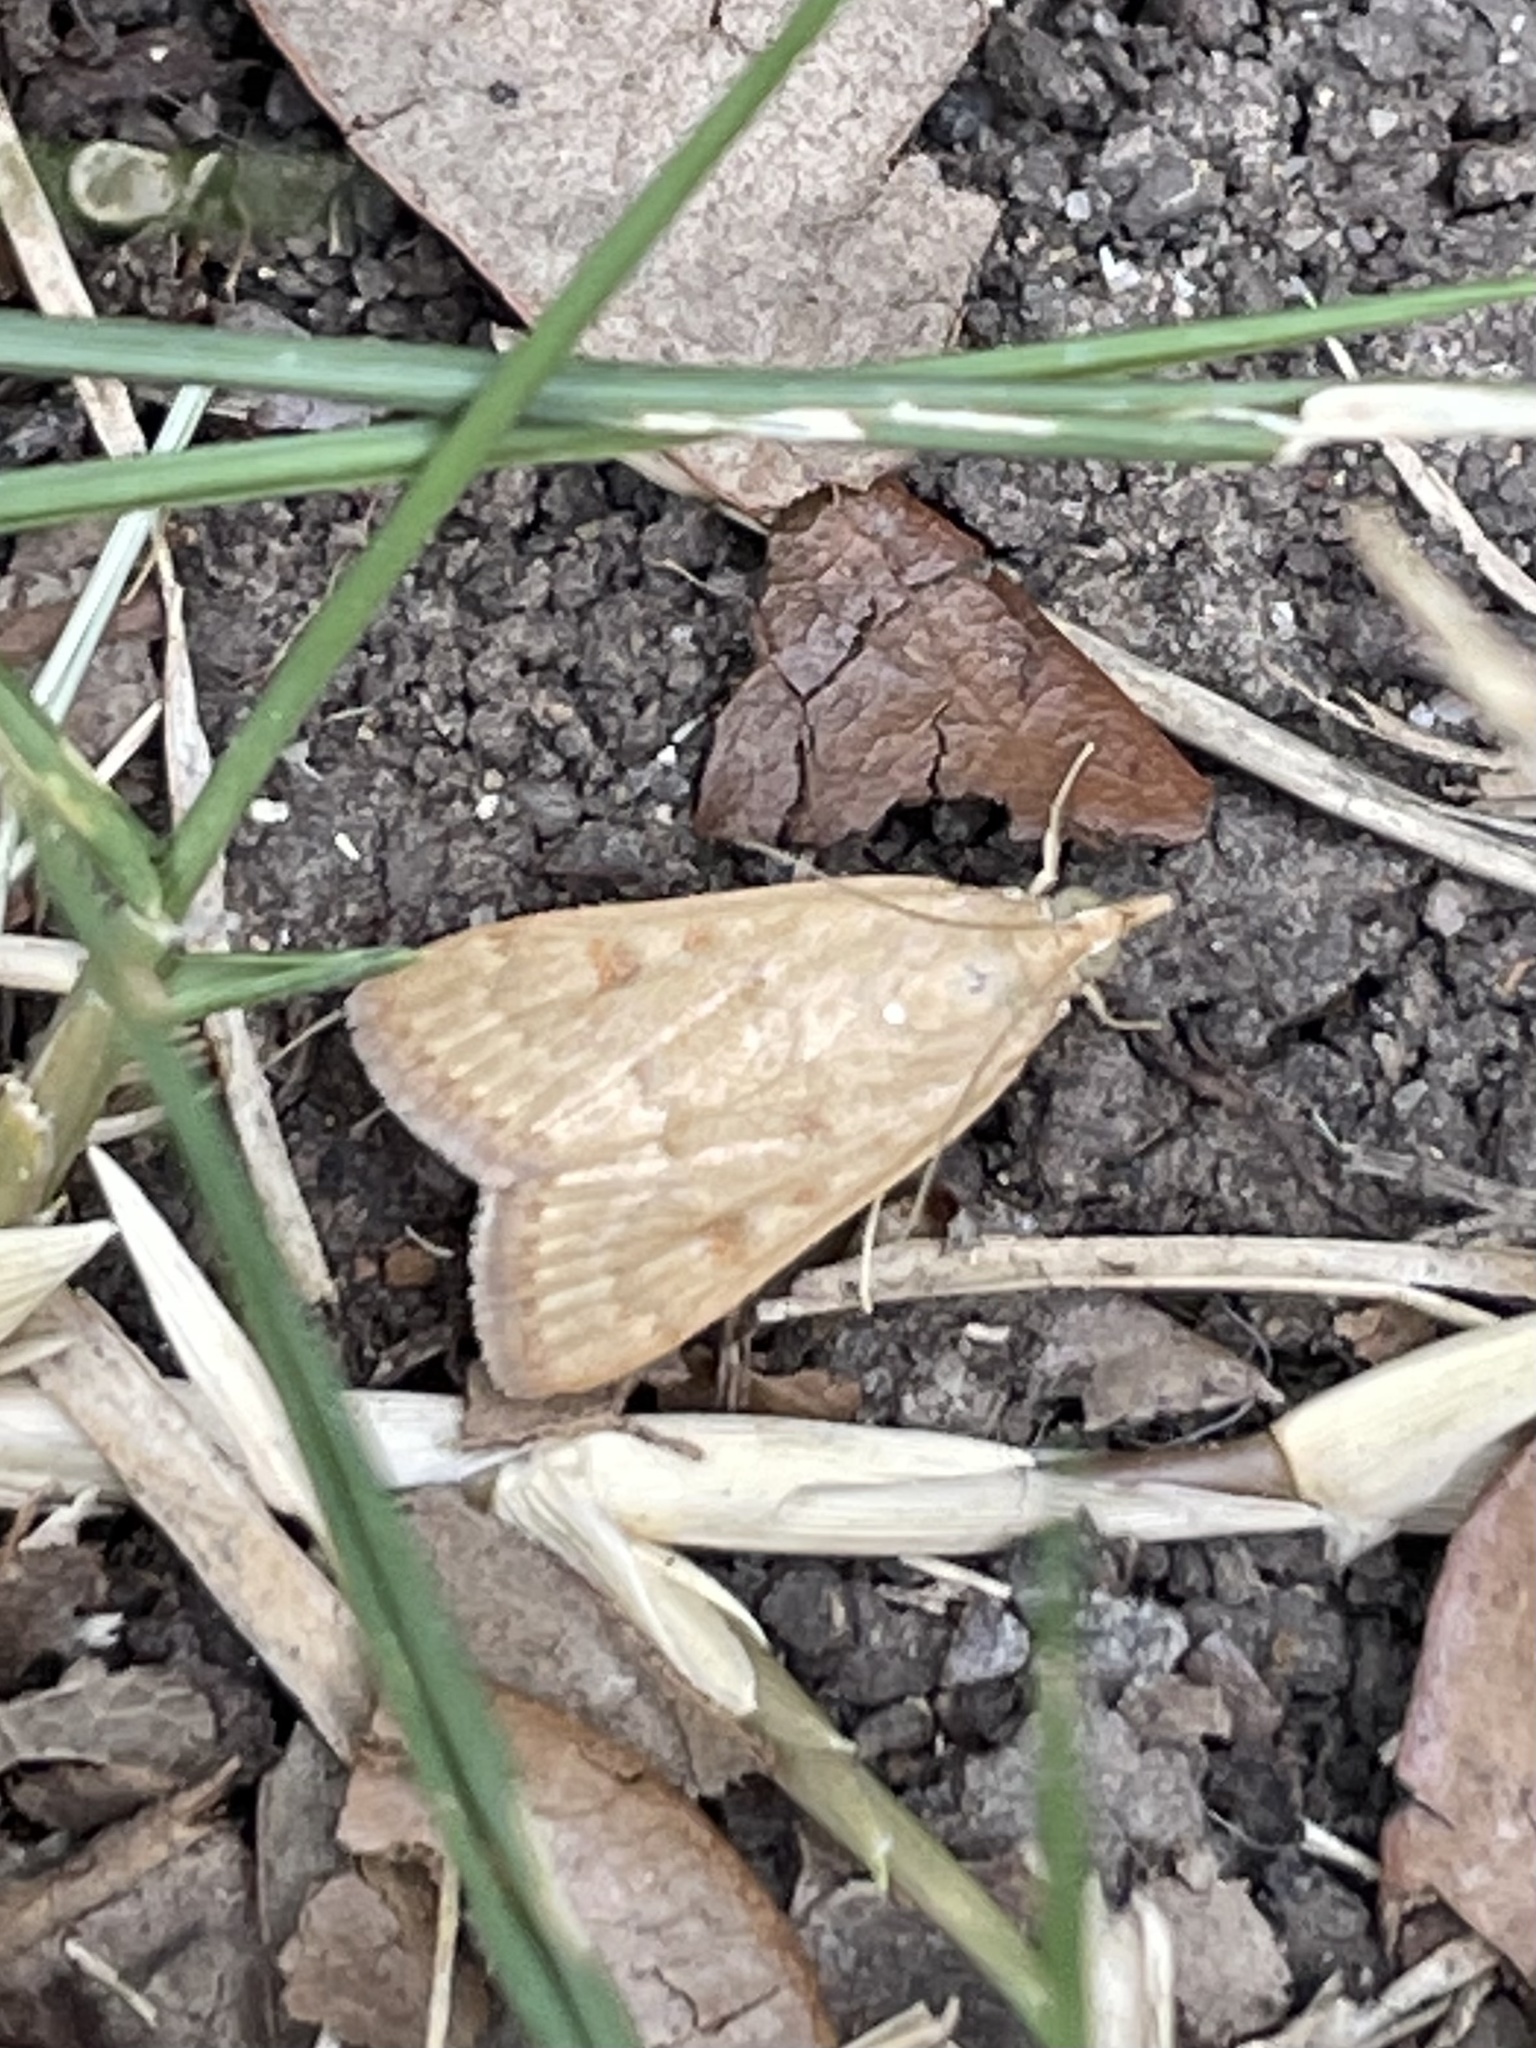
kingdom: Animalia
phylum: Arthropoda
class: Insecta
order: Lepidoptera
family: Crambidae
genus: Achyra
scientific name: Achyra rantalis
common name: Garden webworm
